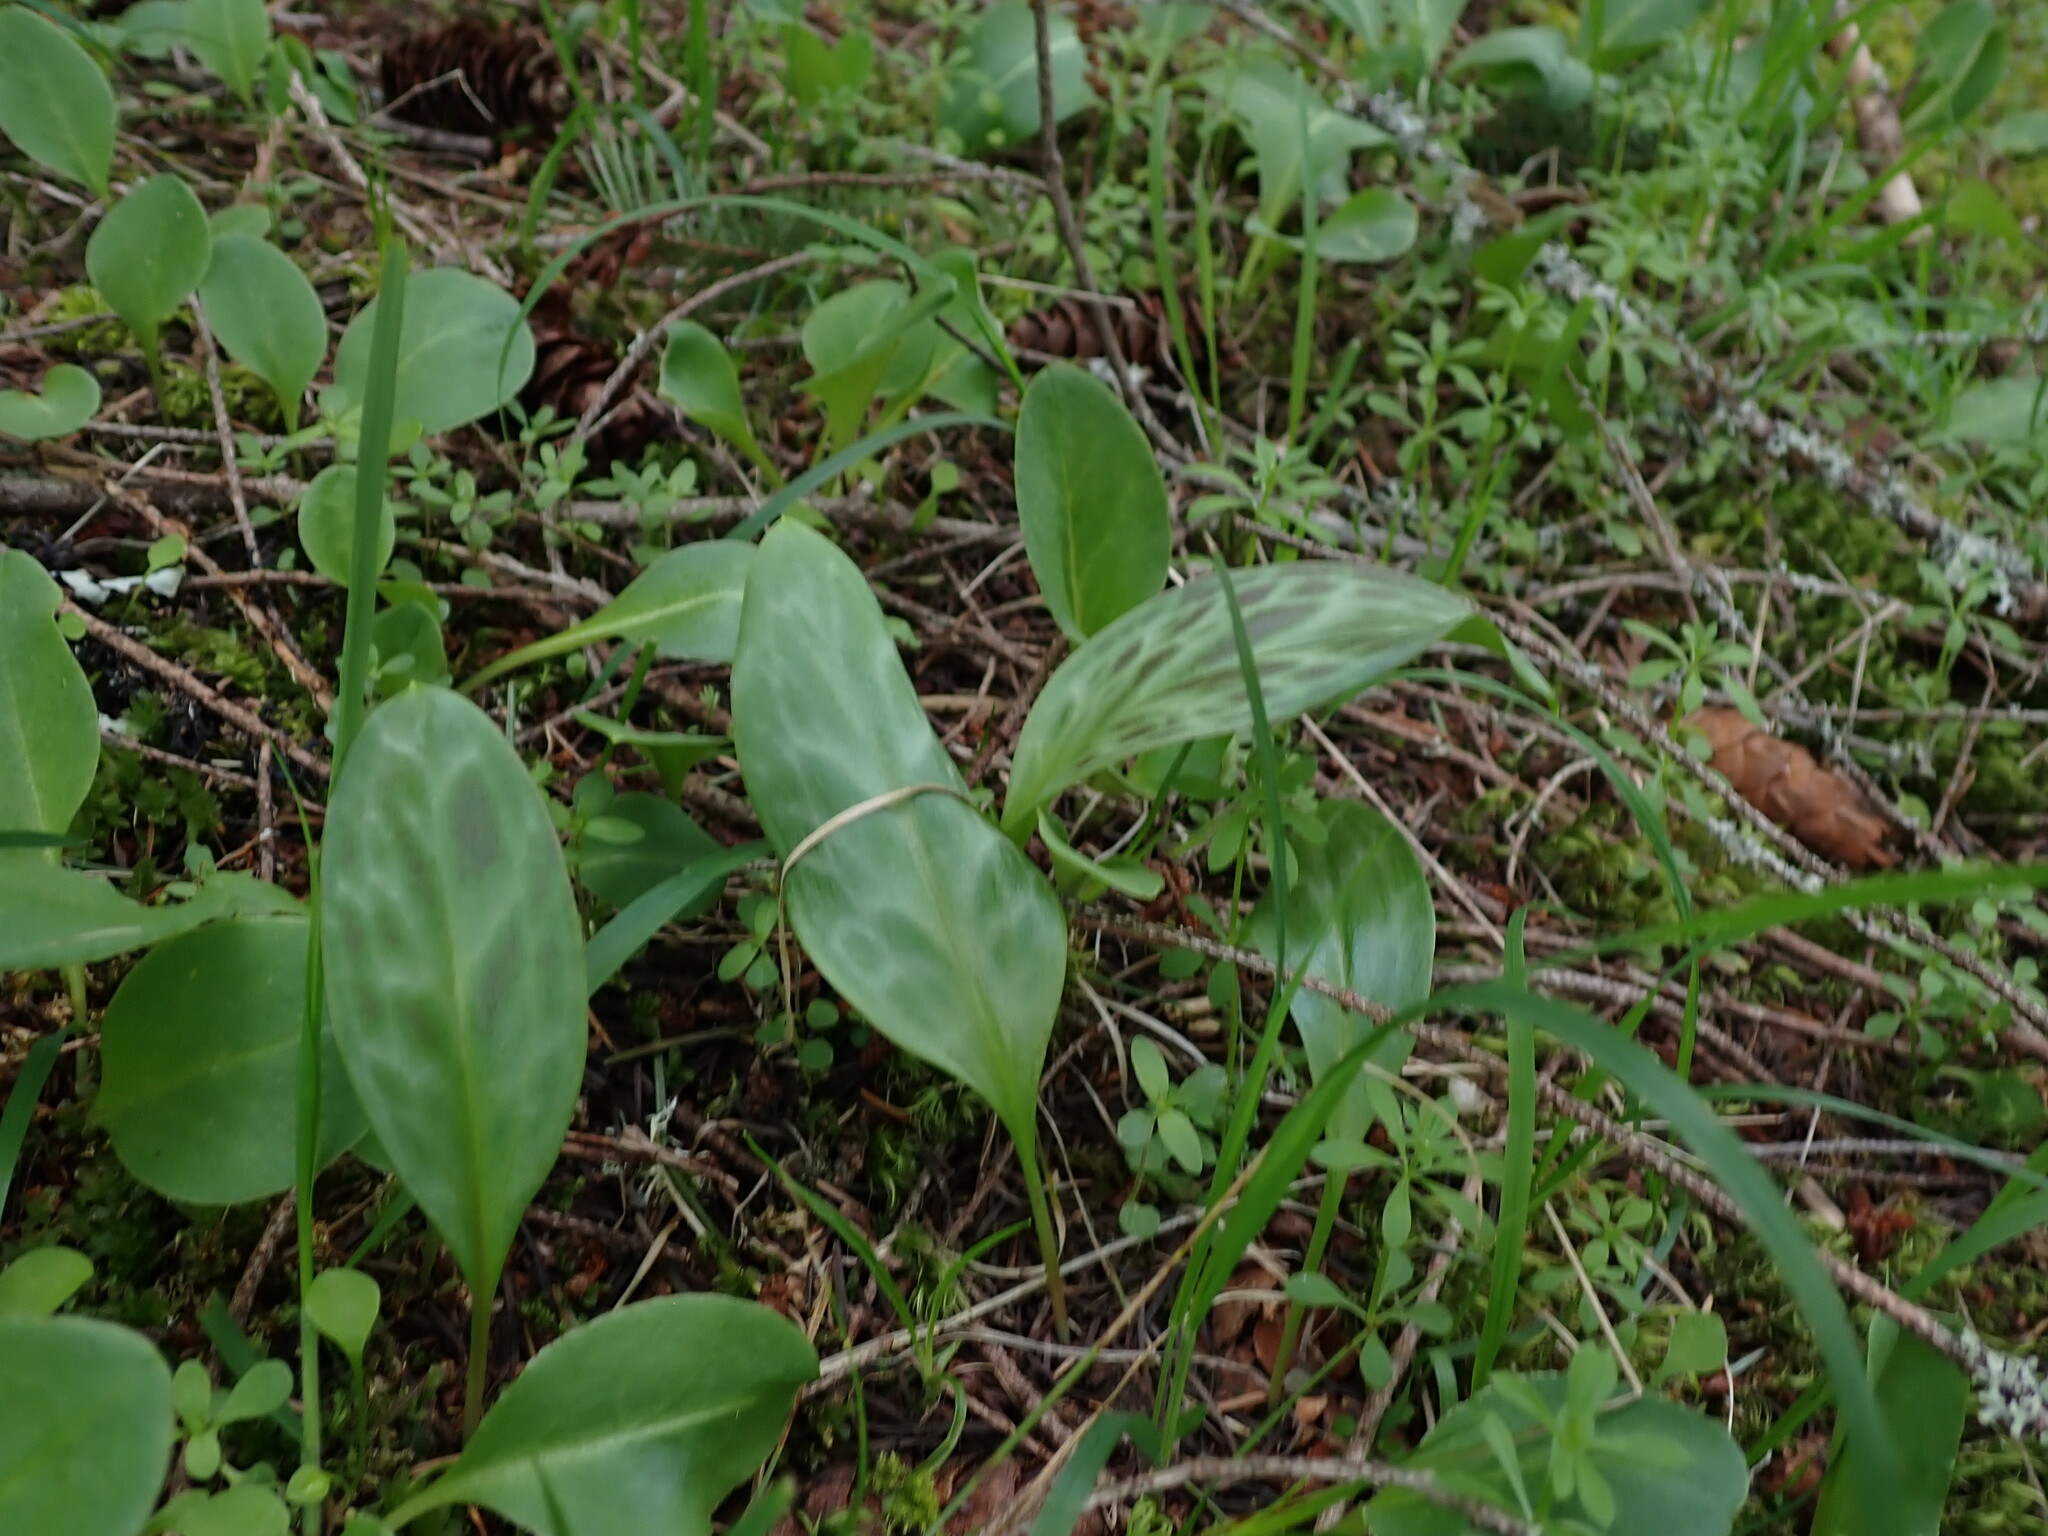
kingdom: Plantae
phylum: Tracheophyta
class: Liliopsida
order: Liliales
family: Liliaceae
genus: Erythronium
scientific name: Erythronium oregonum
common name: Giant adder's-tongue
